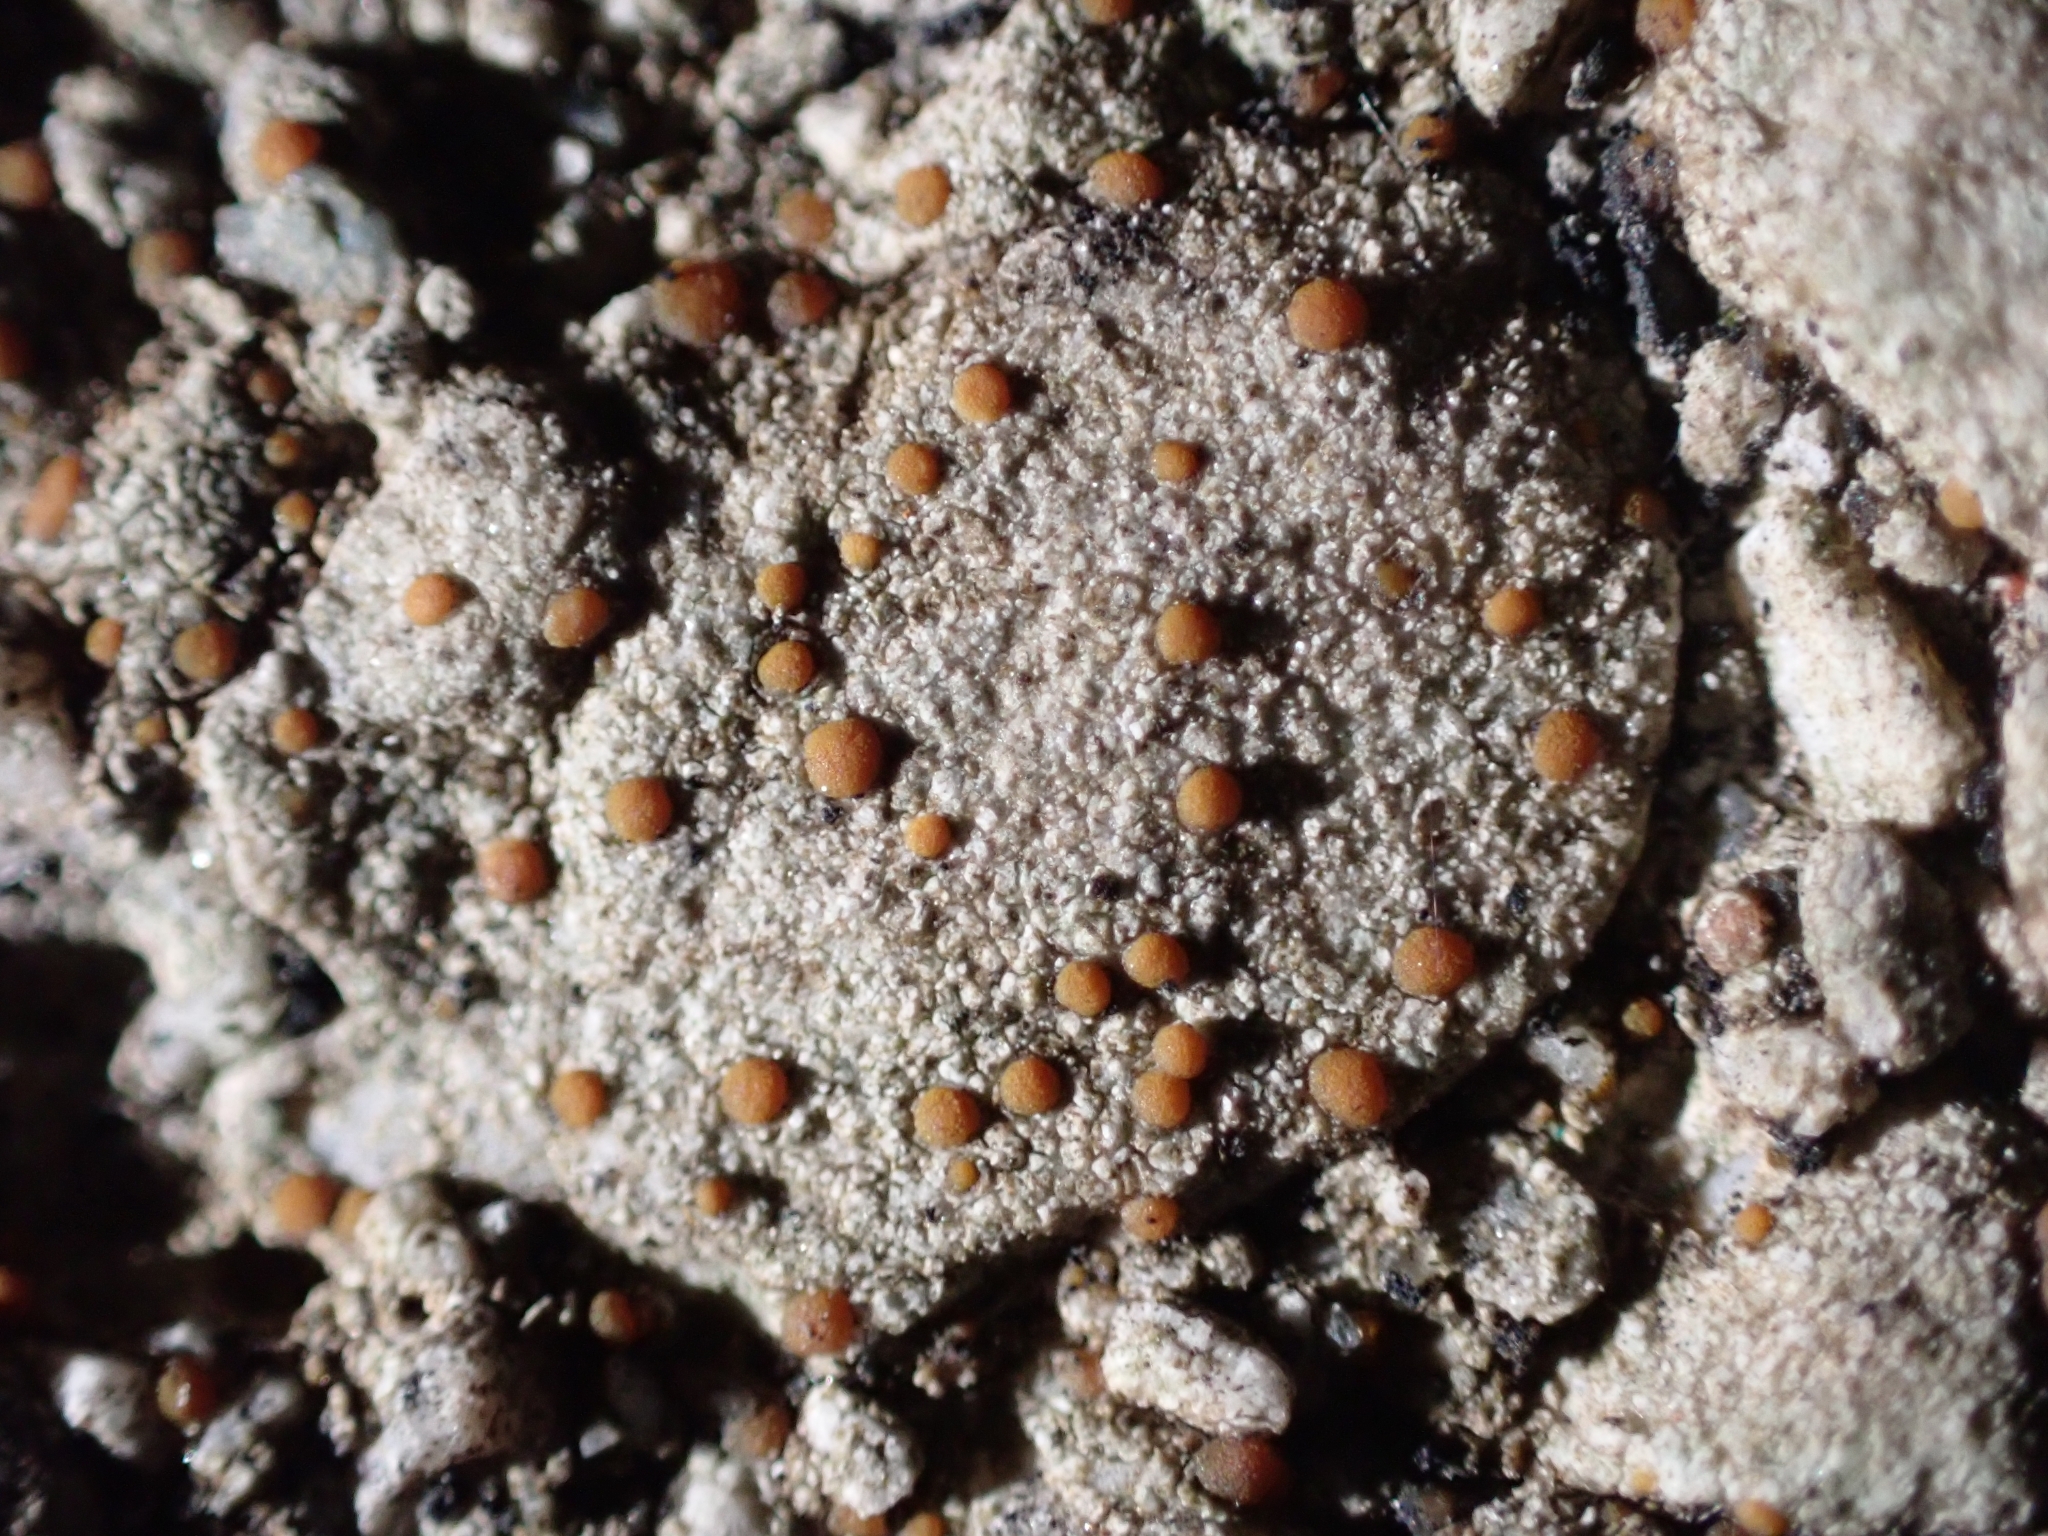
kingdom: Fungi
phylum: Ascomycota
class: Lecanoromycetes
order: Lecanorales
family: Psoraceae
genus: Protoblastenia
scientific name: Protoblastenia rupestris
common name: Chewing gum lichen
